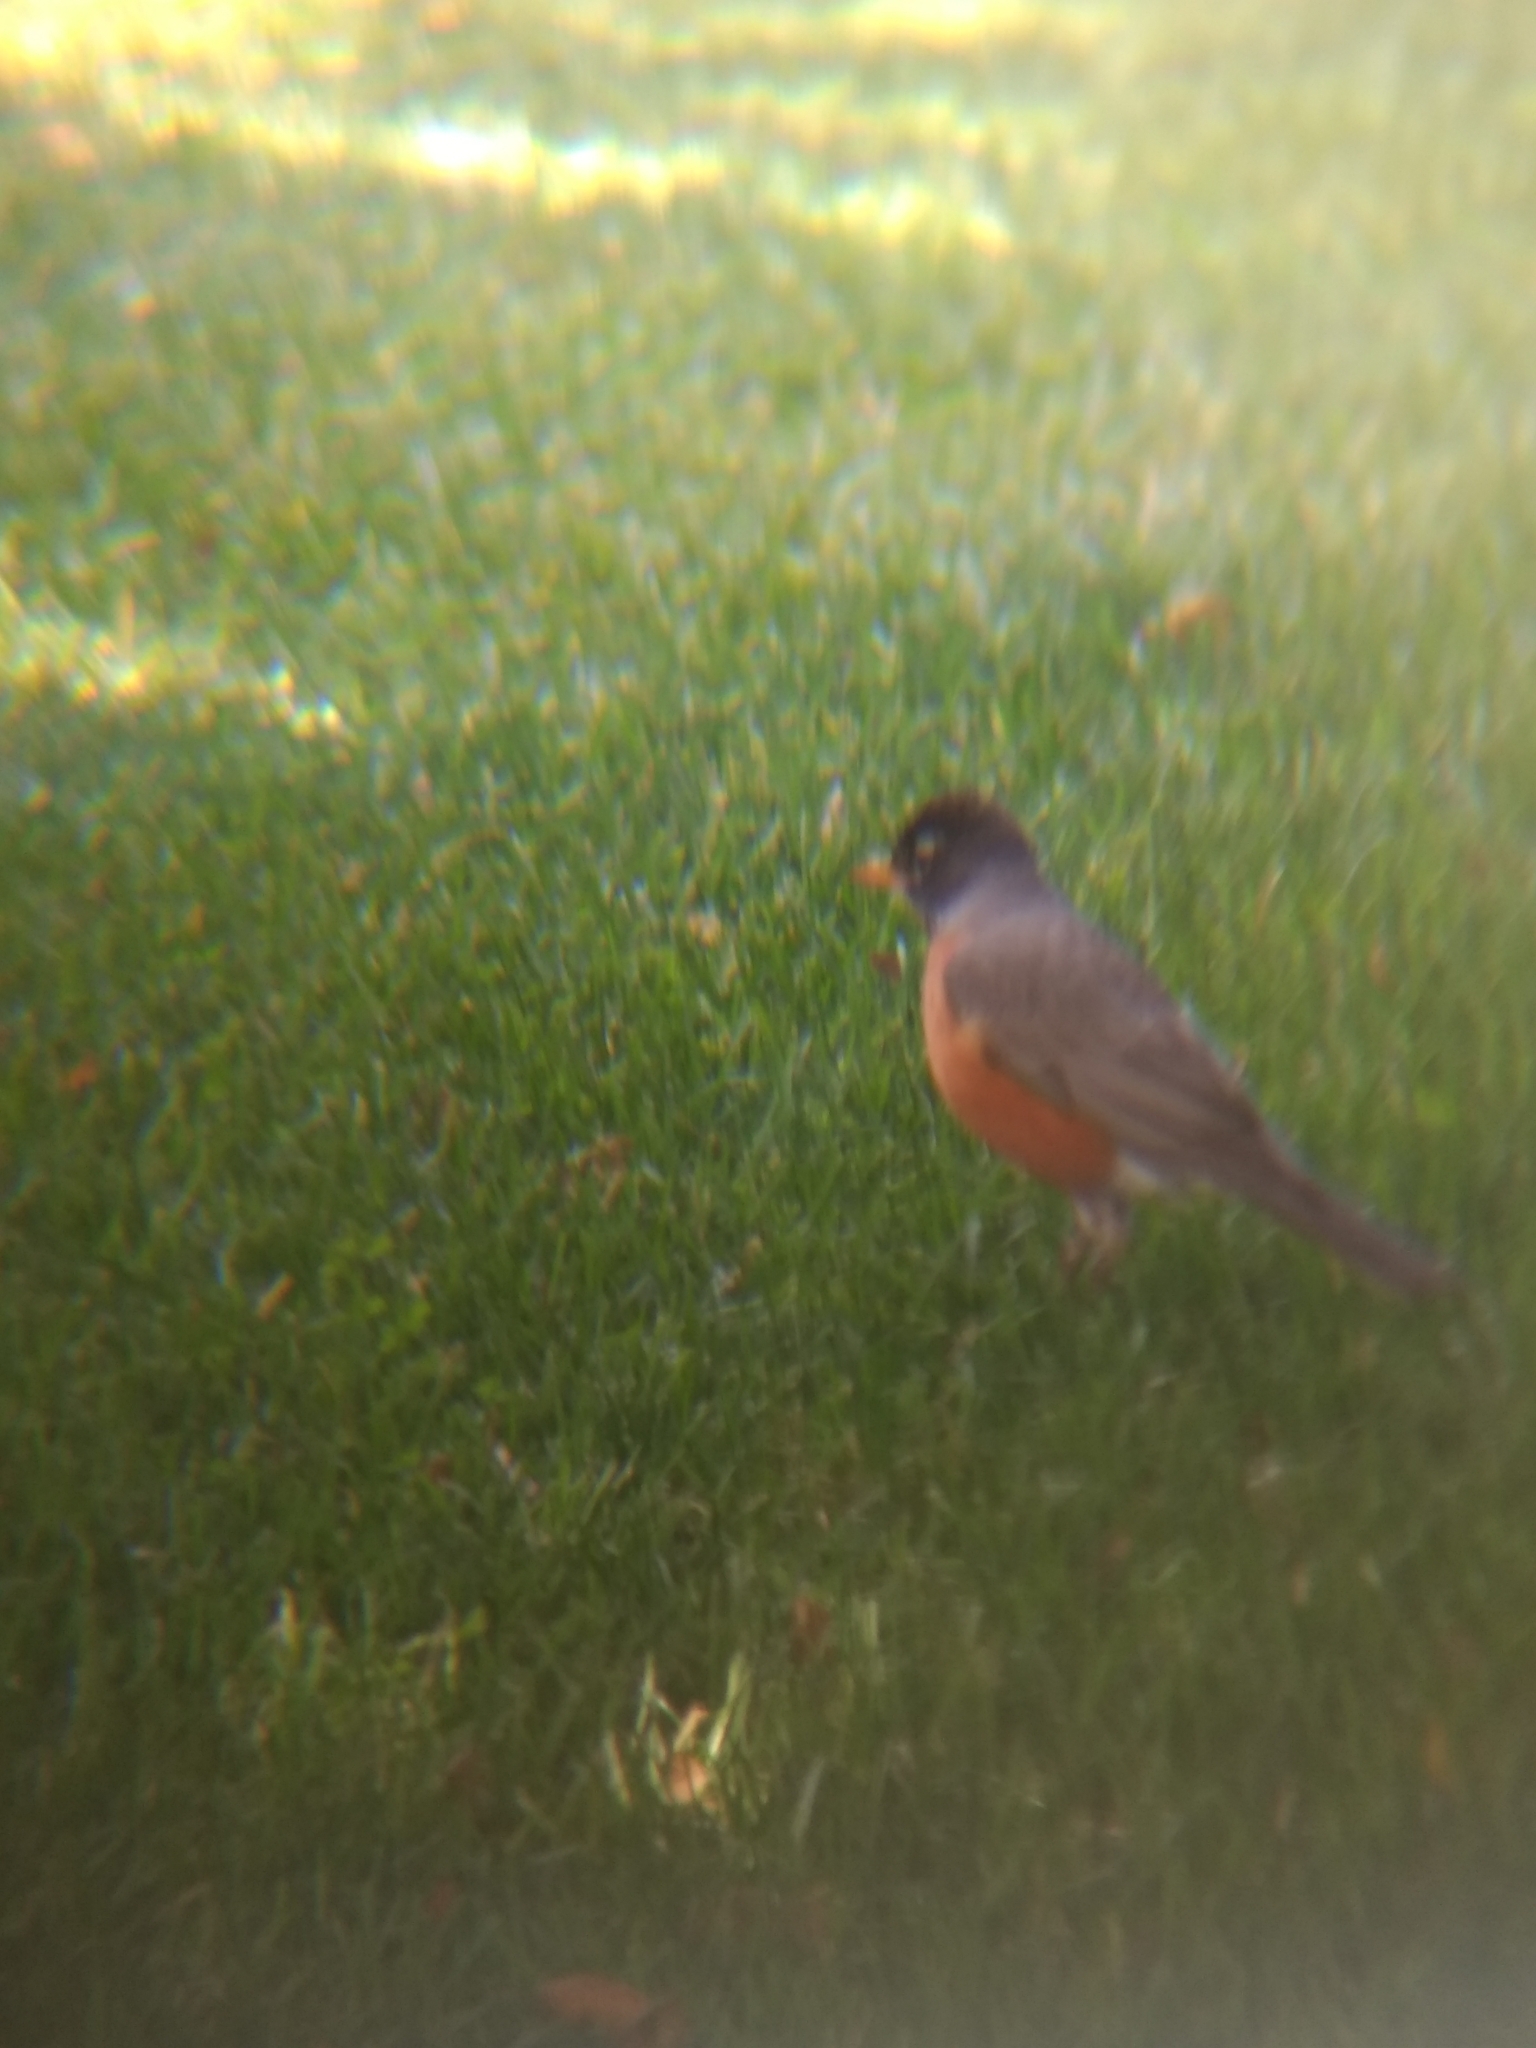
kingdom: Animalia
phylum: Chordata
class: Aves
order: Passeriformes
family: Turdidae
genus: Turdus
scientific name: Turdus migratorius
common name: American robin
